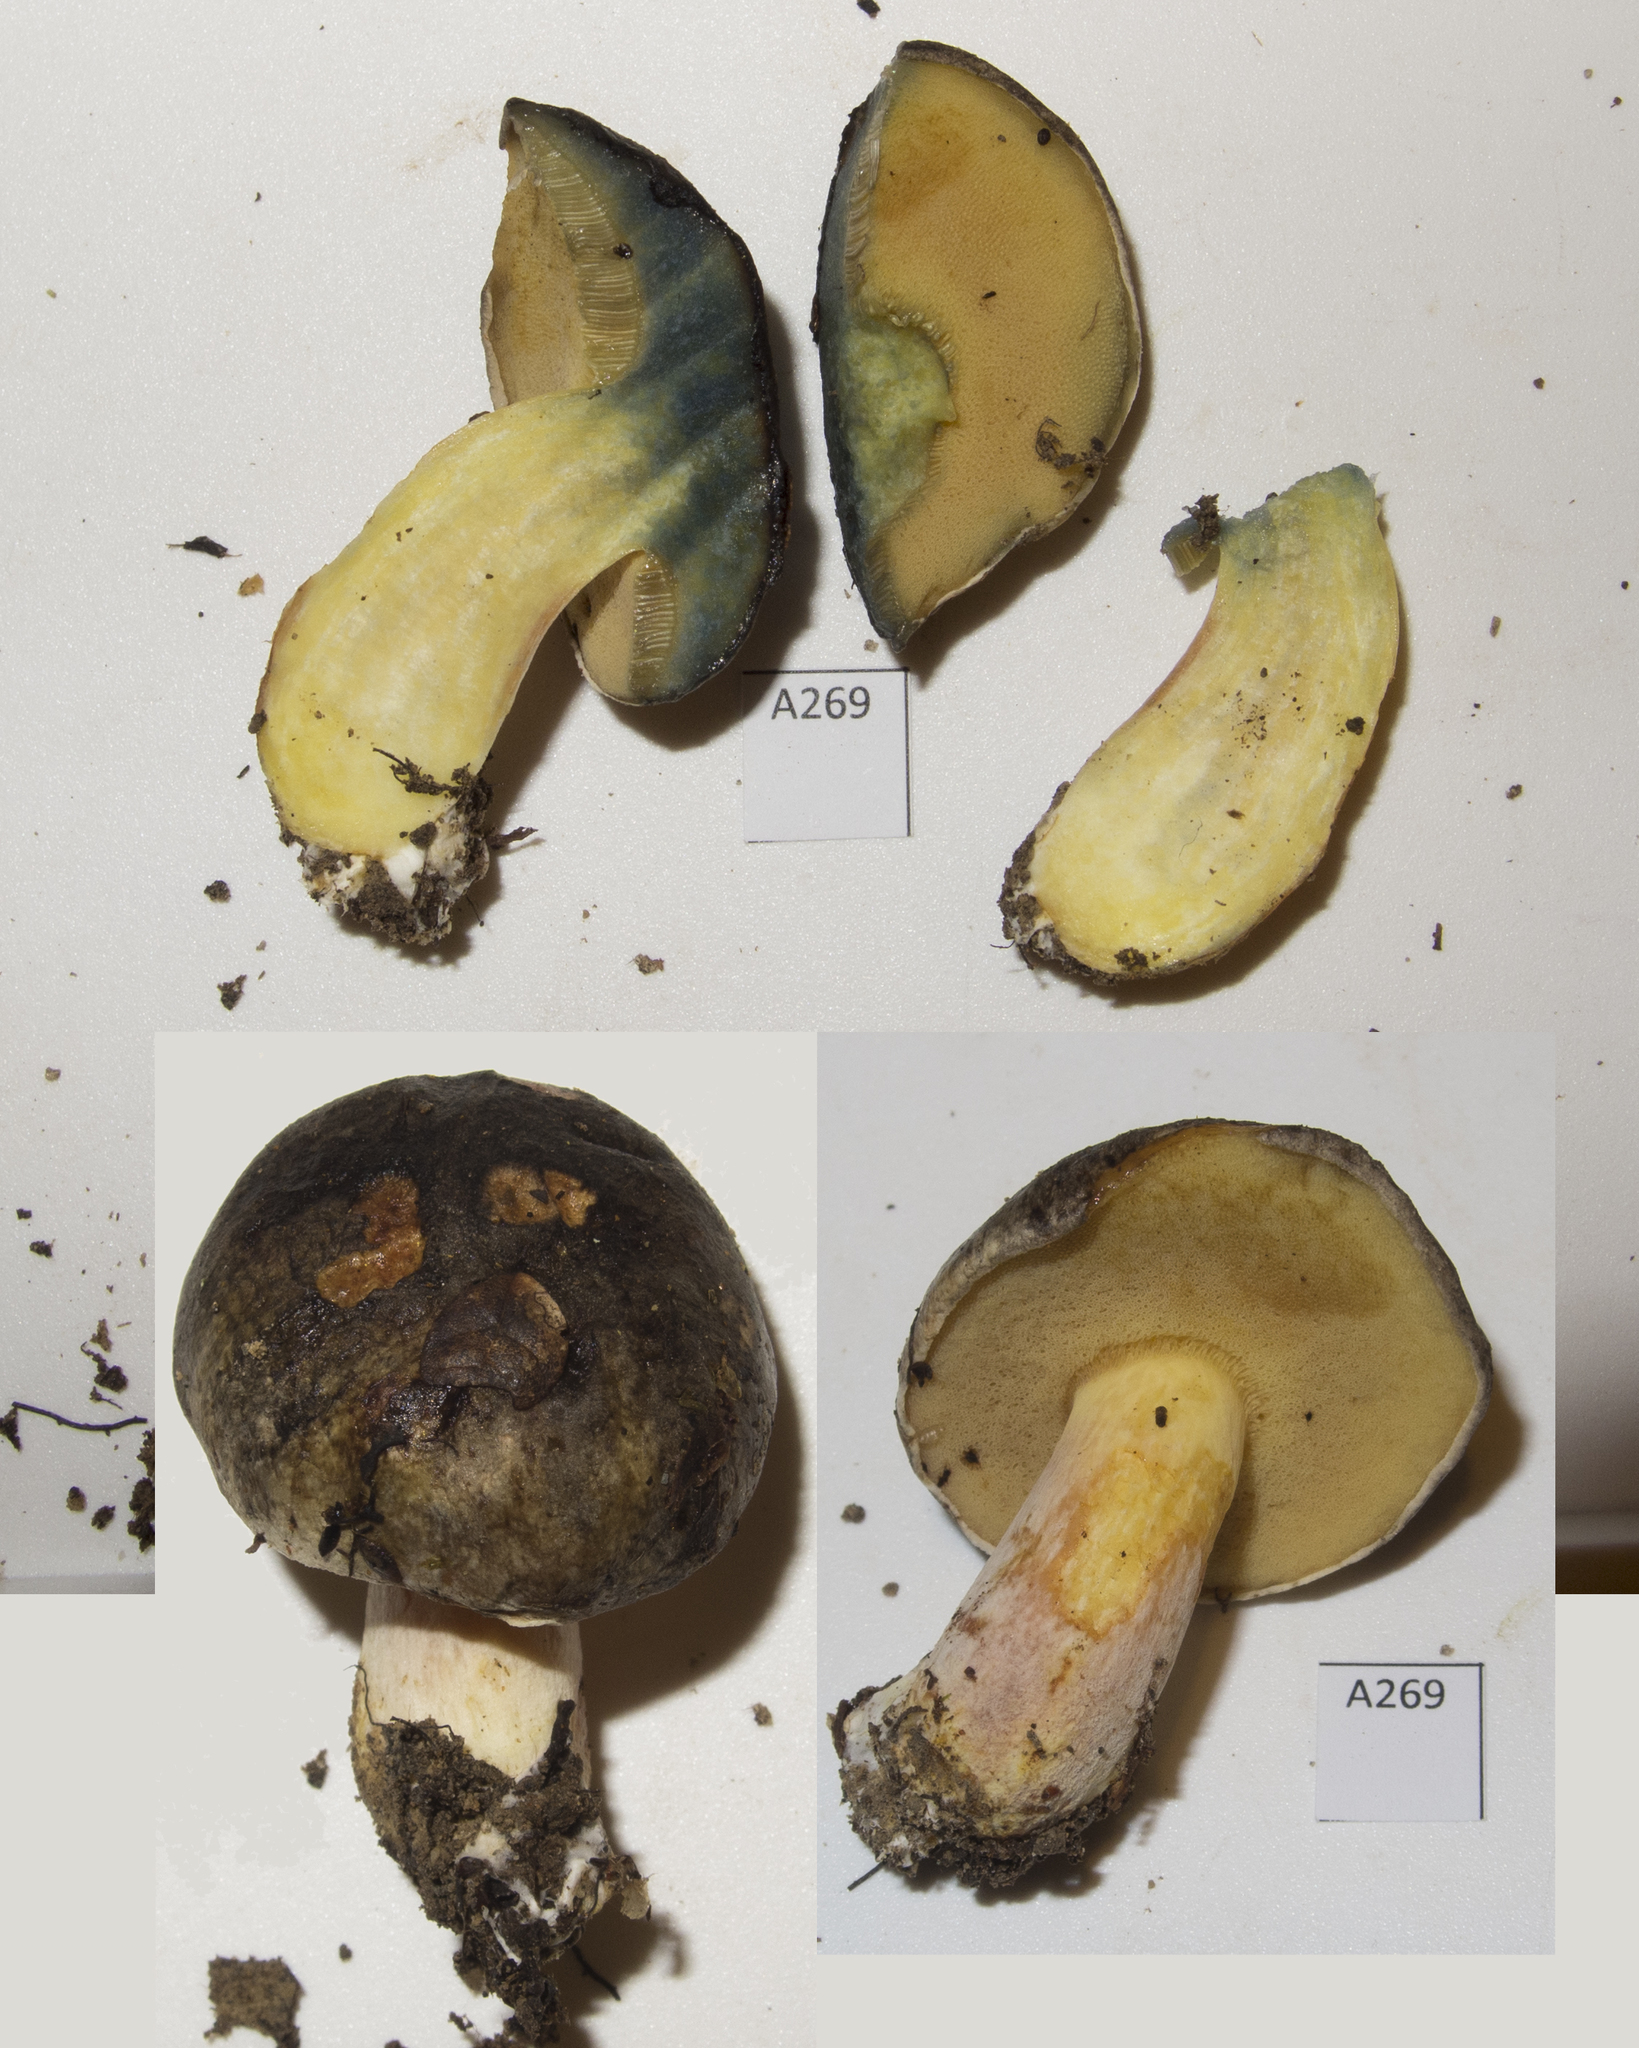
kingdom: Fungi
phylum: Basidiomycota
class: Agaricomycetes
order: Boletales
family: Boletaceae
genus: Xerocomus
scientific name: Xerocomus leptospermi
